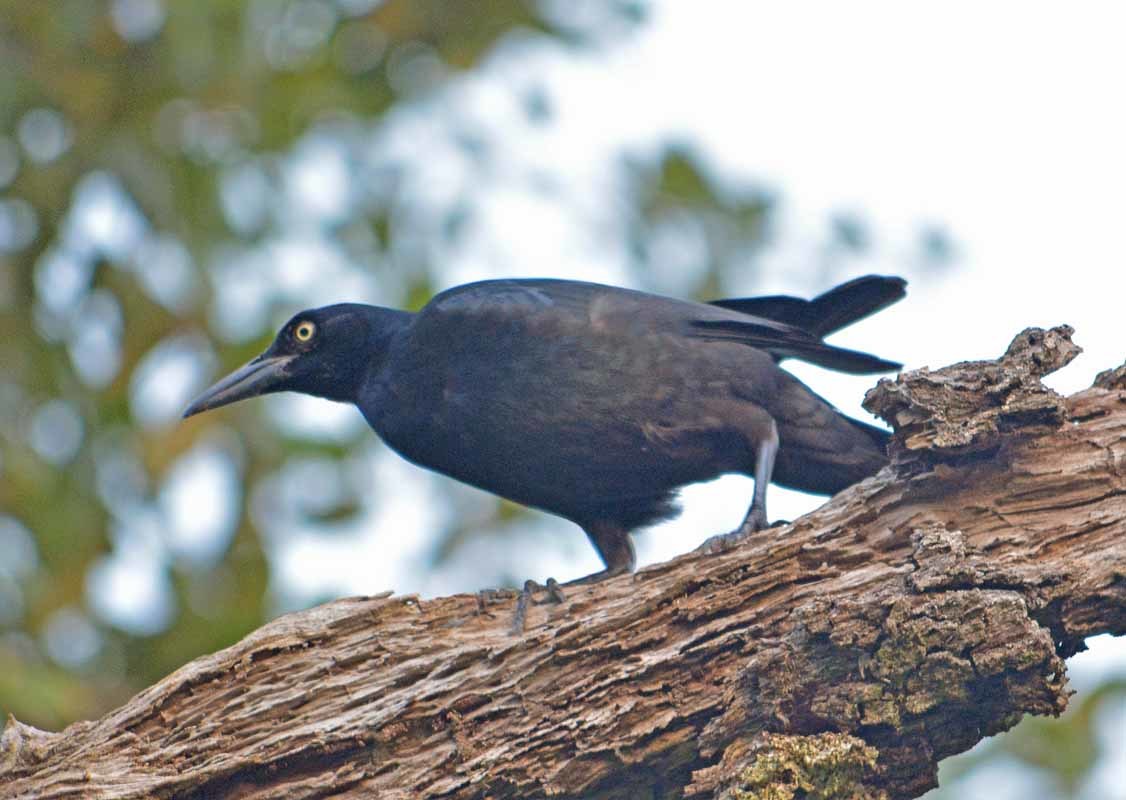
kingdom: Animalia
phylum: Chordata
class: Aves
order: Passeriformes
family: Icteridae
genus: Quiscalus
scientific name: Quiscalus mexicanus
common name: Great-tailed grackle
